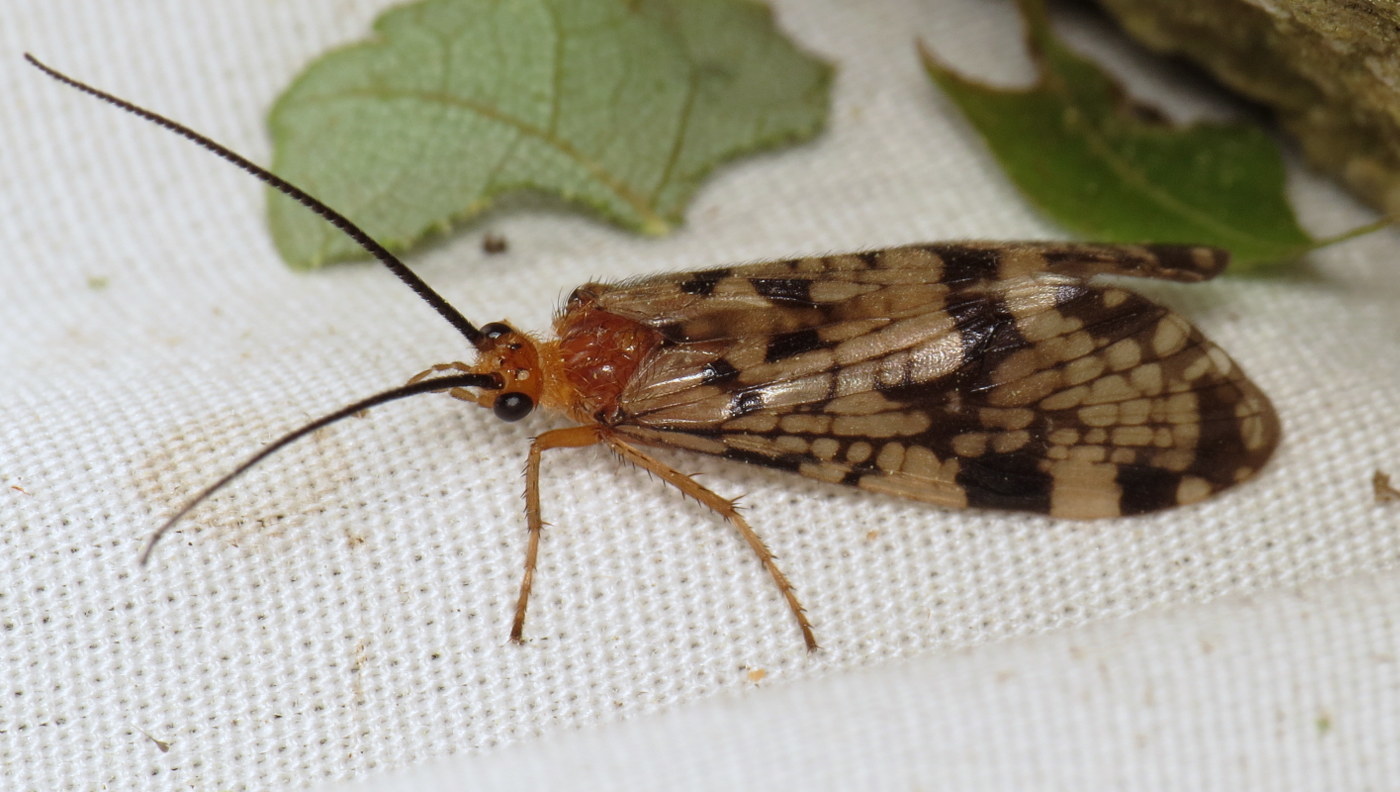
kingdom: Animalia
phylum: Arthropoda
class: Insecta
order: Trichoptera
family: Phryganeidae
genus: Banksiola
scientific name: Banksiola dossuaria
